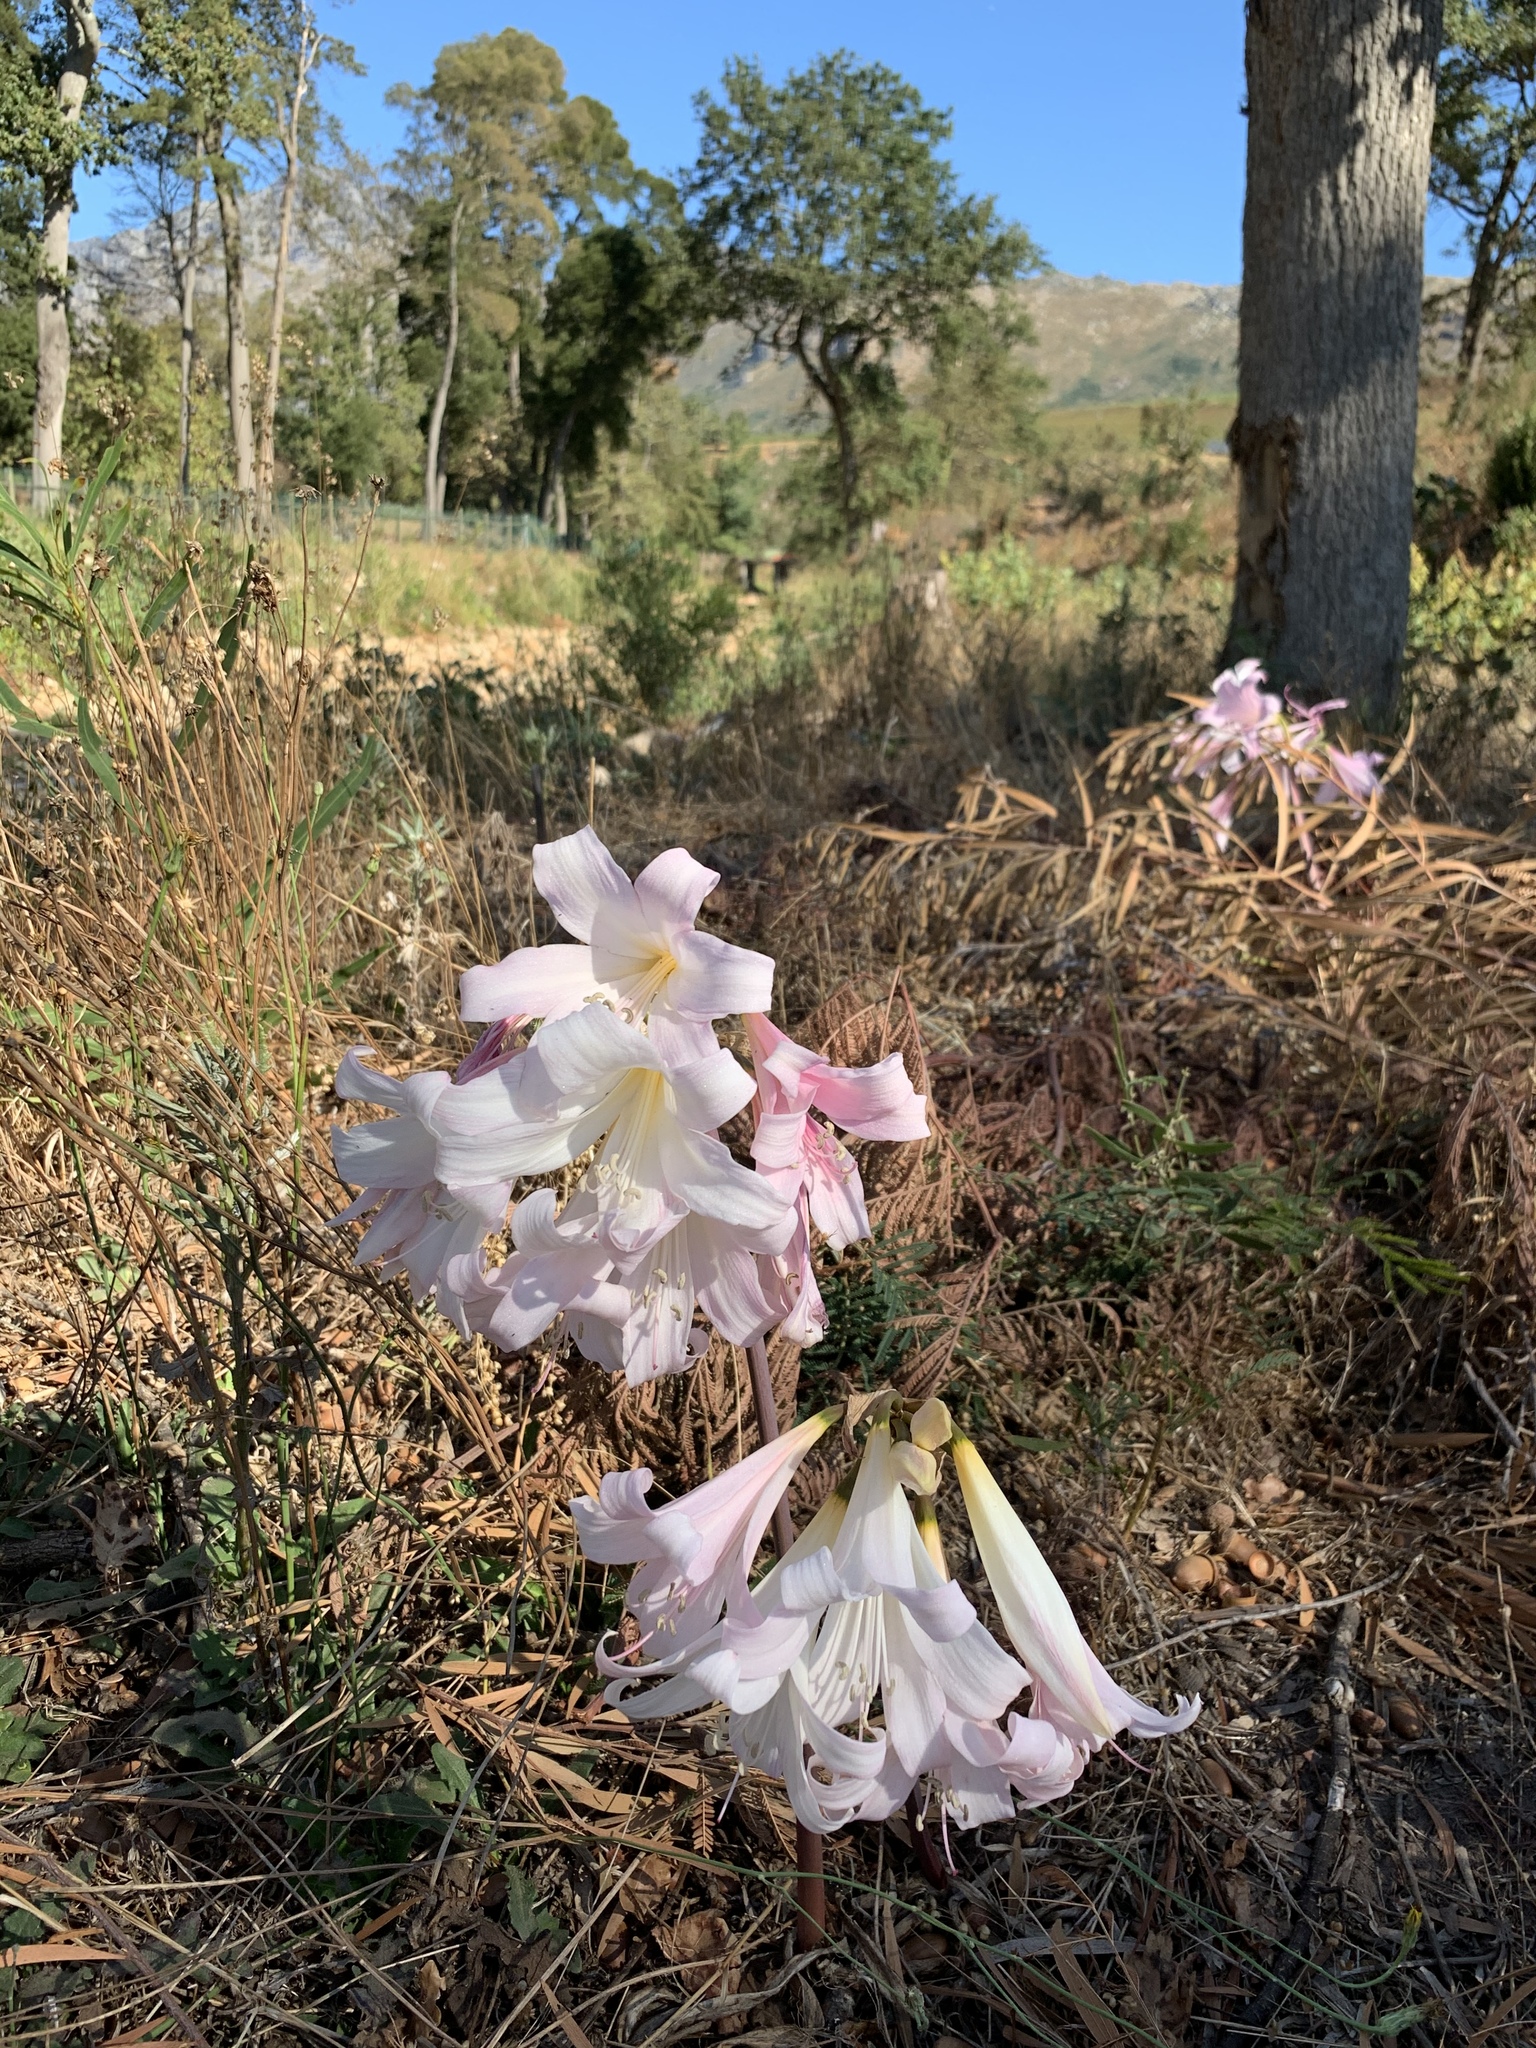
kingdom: Plantae
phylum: Tracheophyta
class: Liliopsida
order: Asparagales
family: Amaryllidaceae
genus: Amaryllis
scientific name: Amaryllis belladonna
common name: Jersey lily
